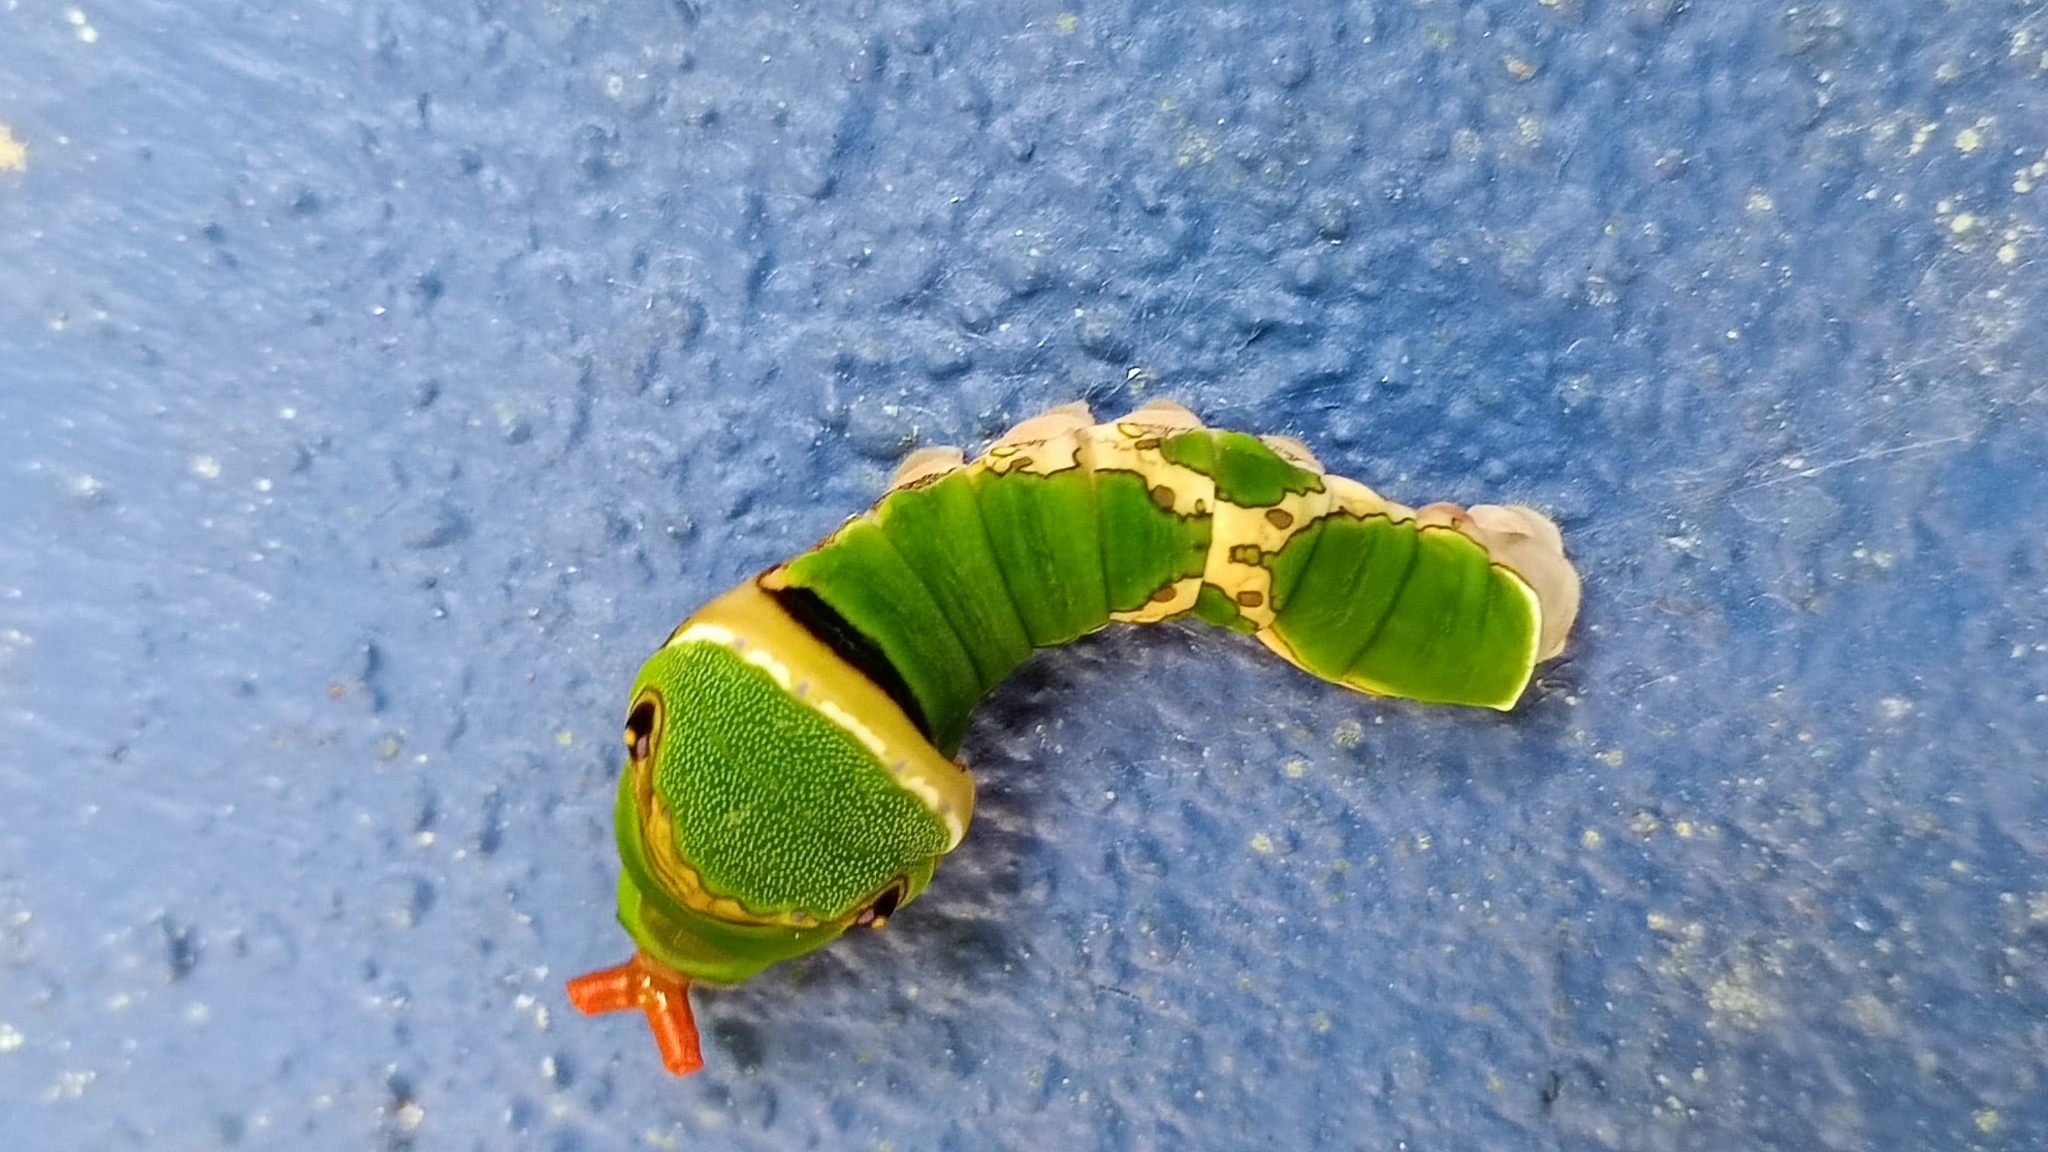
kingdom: Animalia
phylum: Arthropoda
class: Insecta
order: Lepidoptera
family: Papilionidae
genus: Papilio
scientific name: Papilio garamas
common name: Magnificent swallowtail
